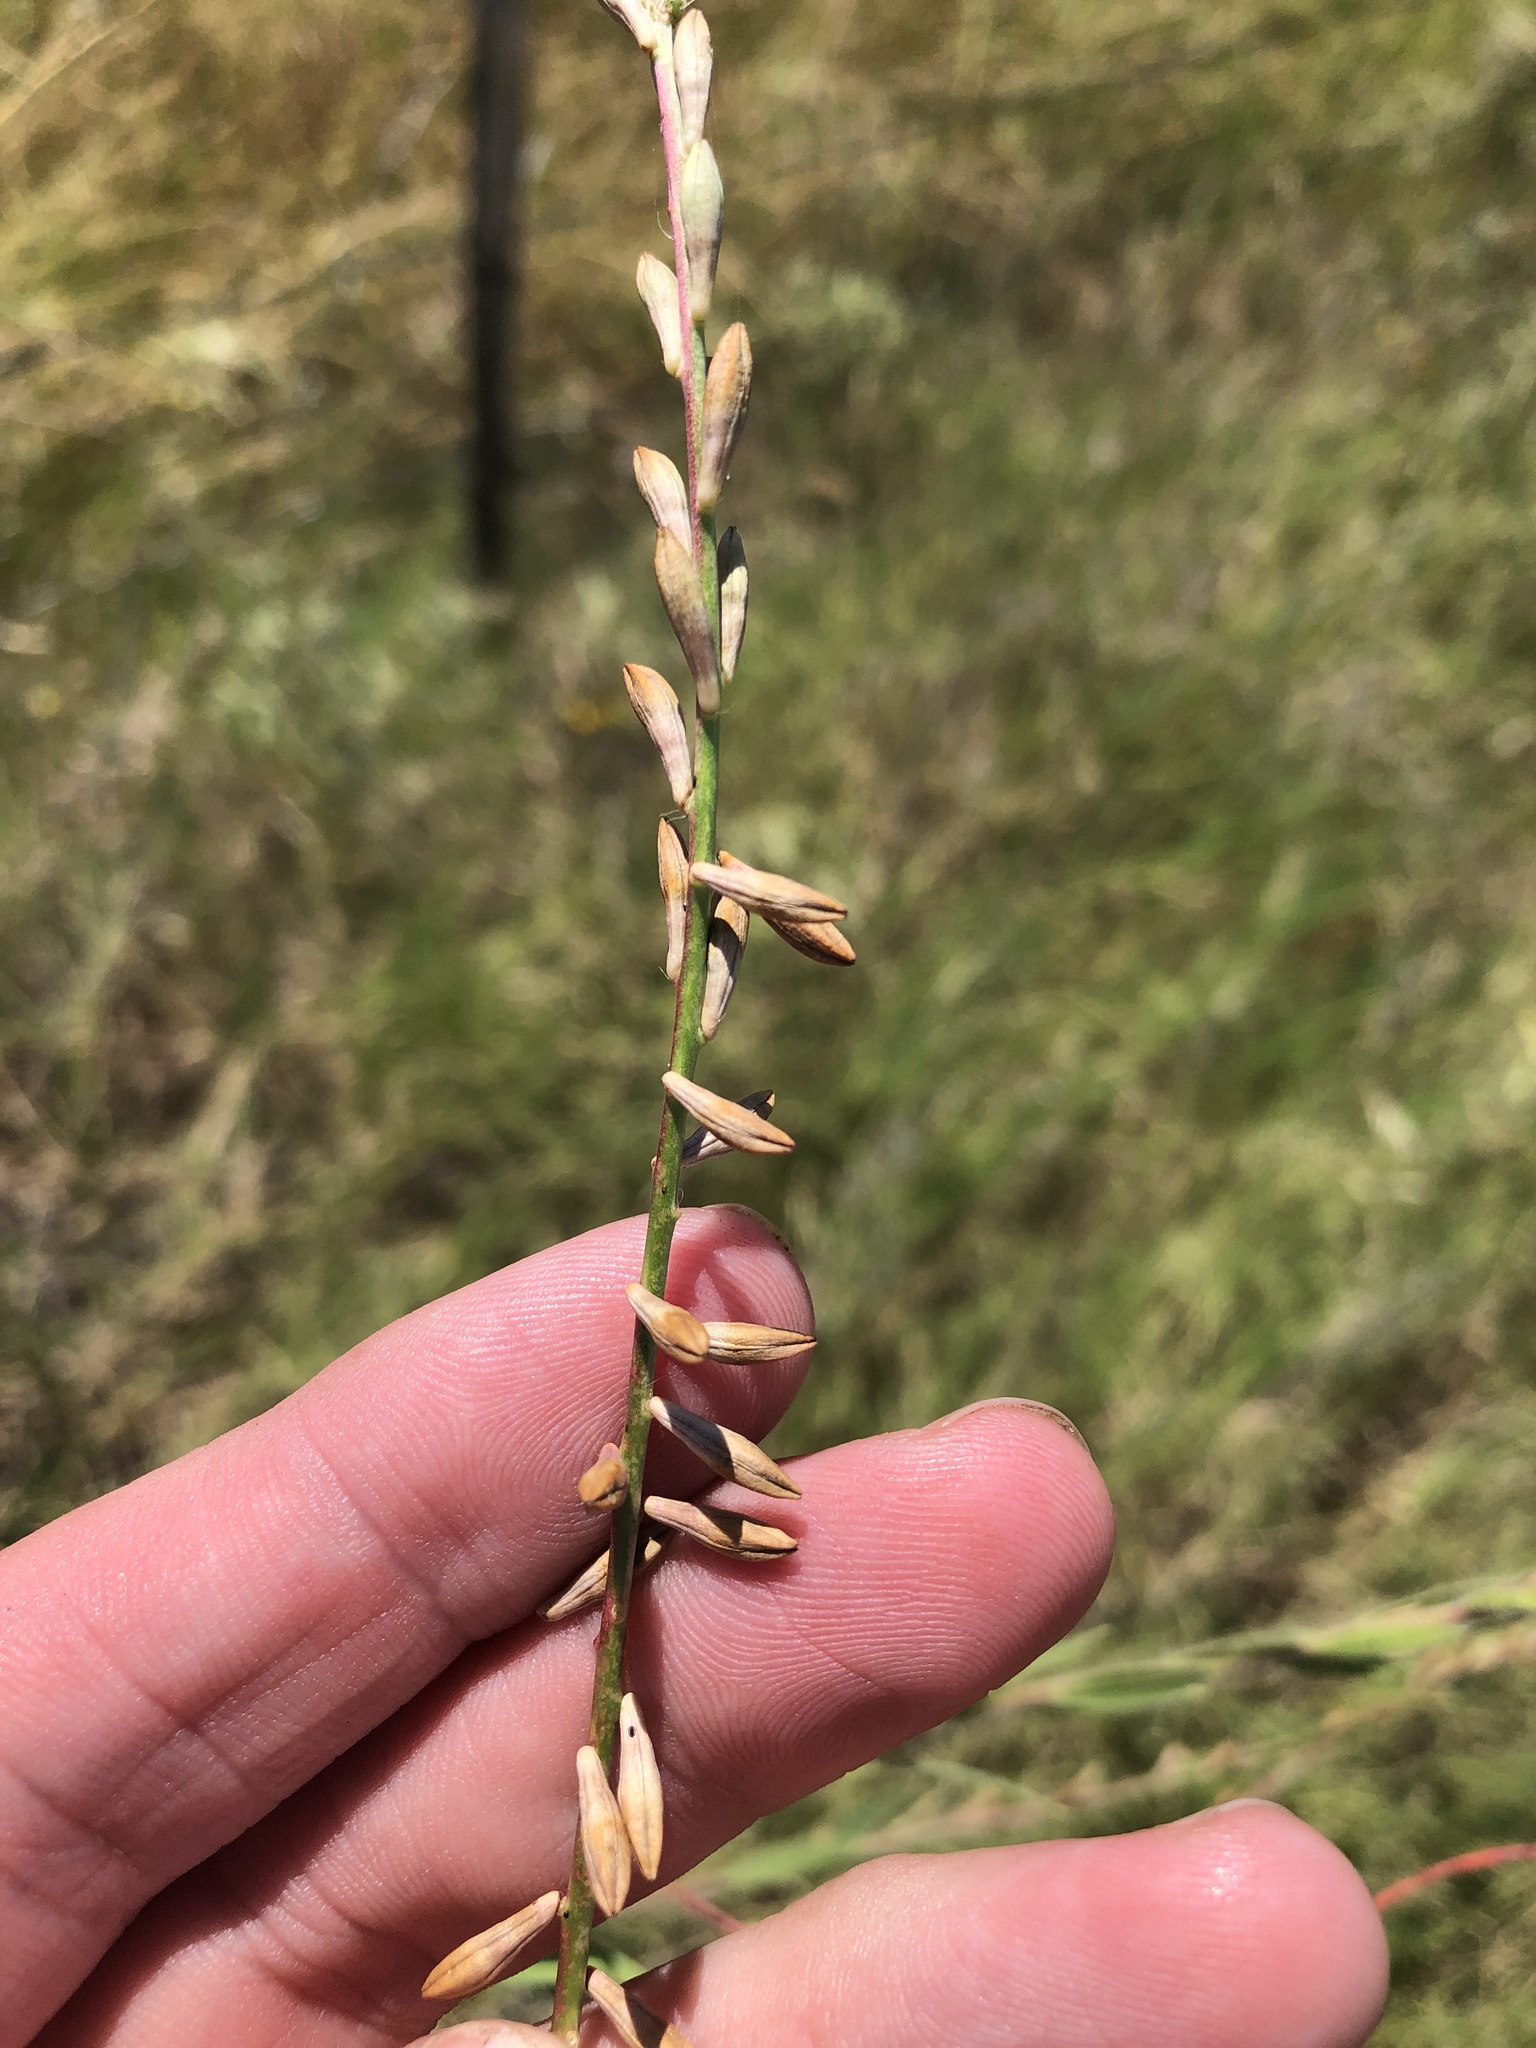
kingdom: Plantae
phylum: Tracheophyta
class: Magnoliopsida
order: Myrtales
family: Onagraceae
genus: Oenothera
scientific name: Oenothera curtiflora
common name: Velvetweed
